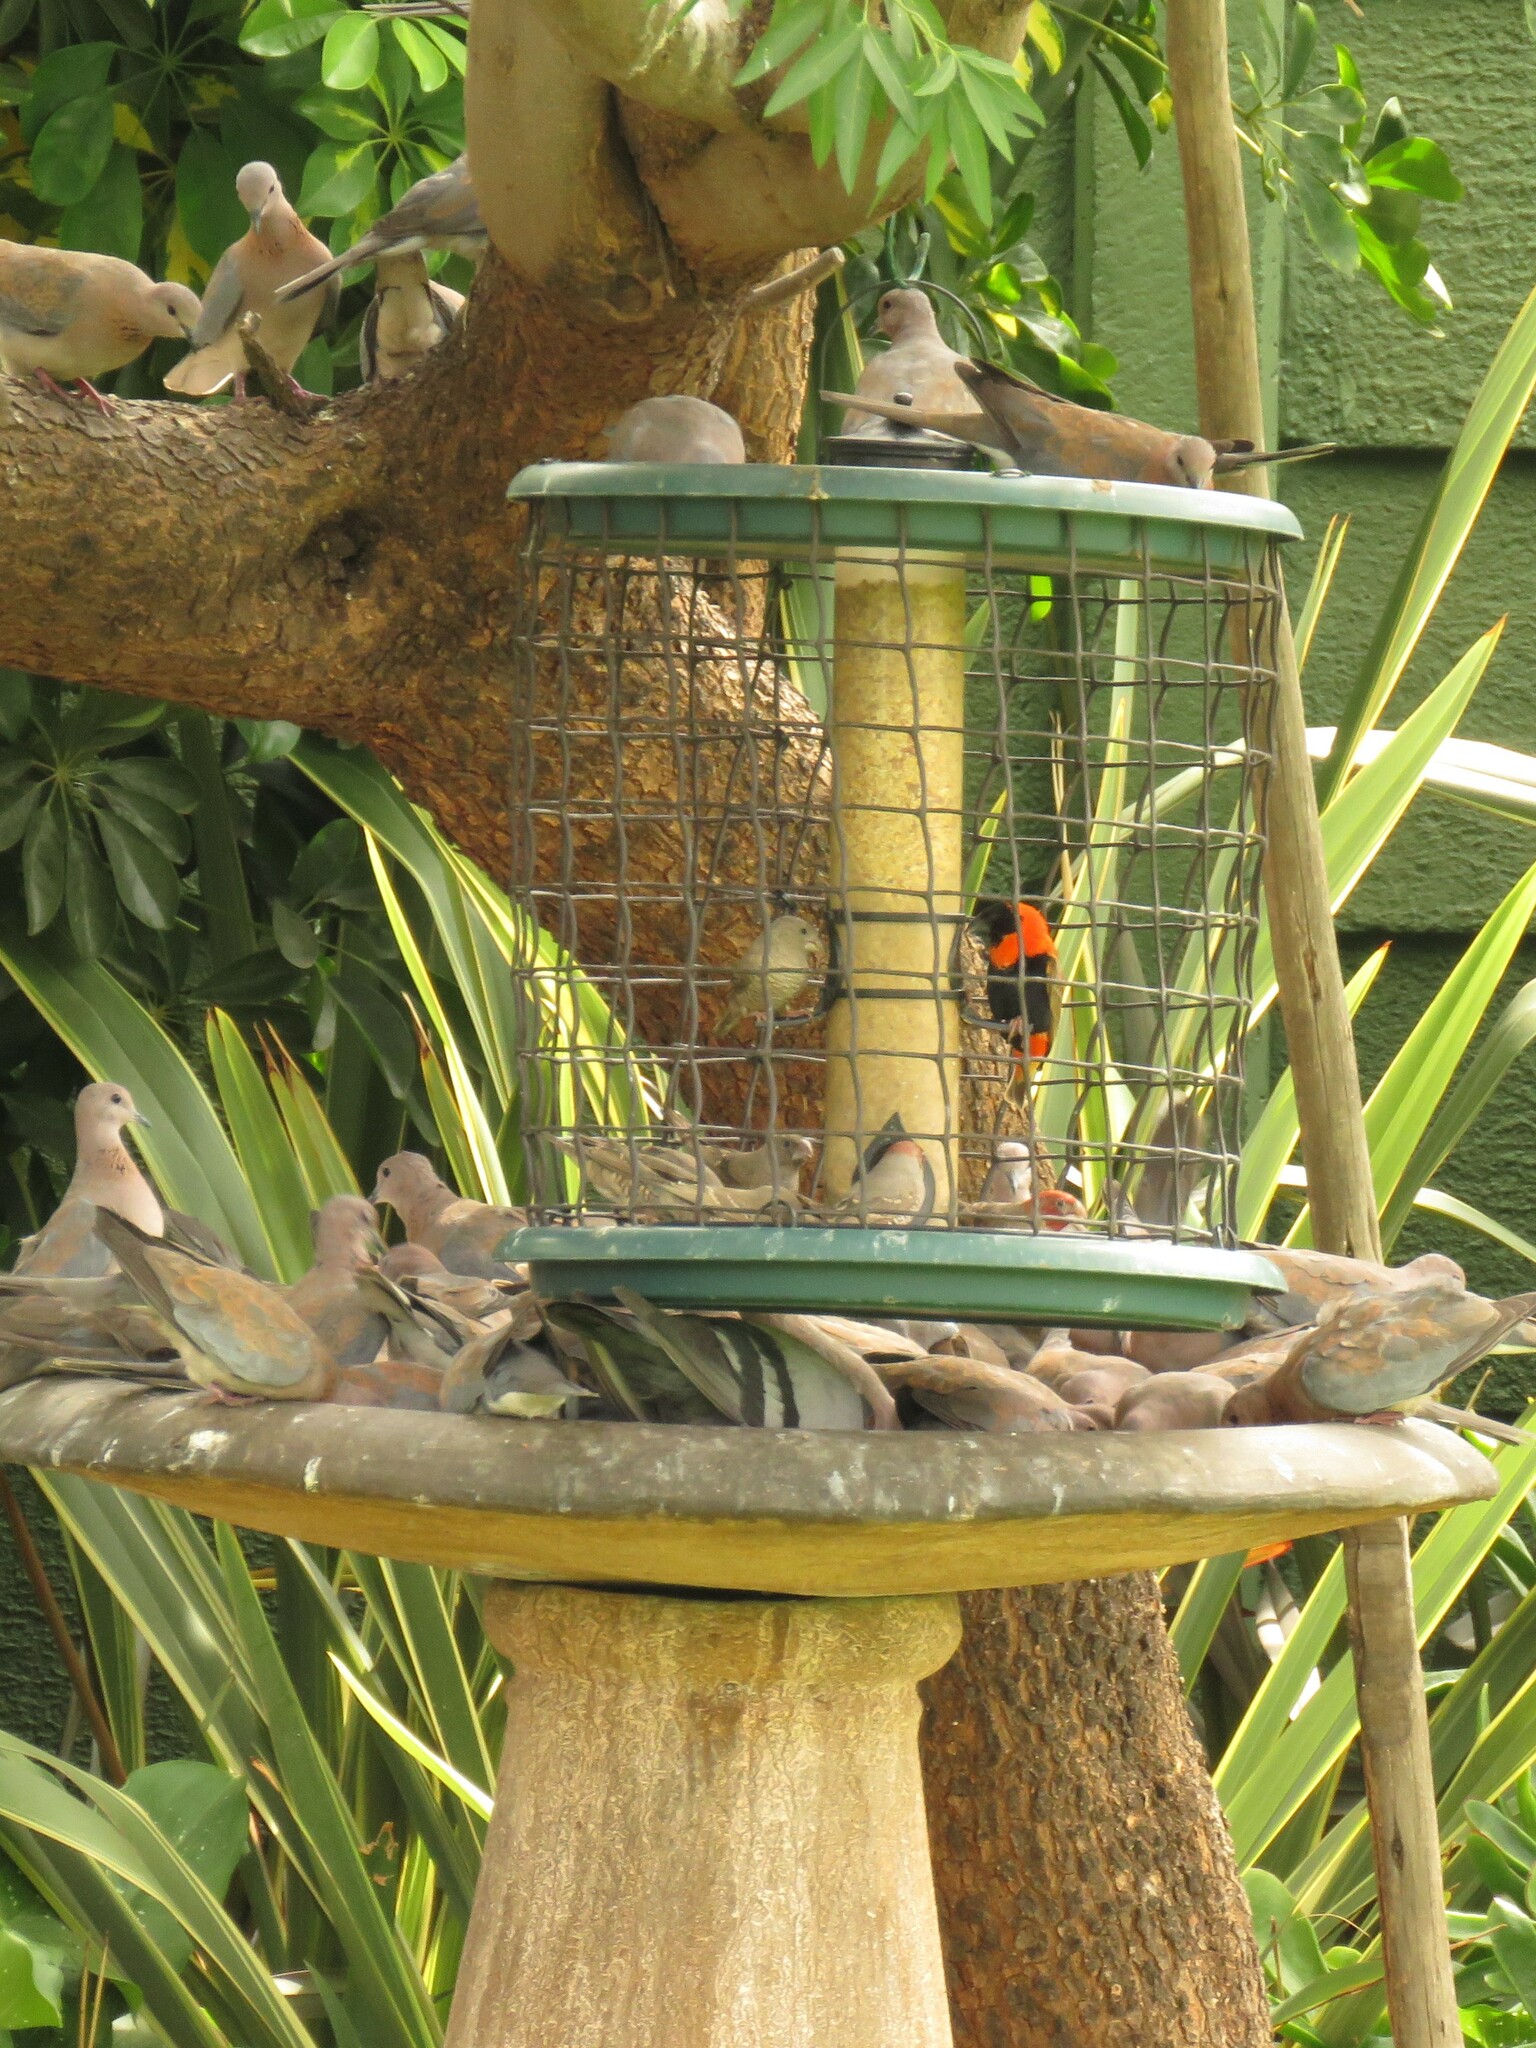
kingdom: Animalia
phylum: Chordata
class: Aves
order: Passeriformes
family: Ploceidae
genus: Euplectes
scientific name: Euplectes orix
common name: Southern red bishop
